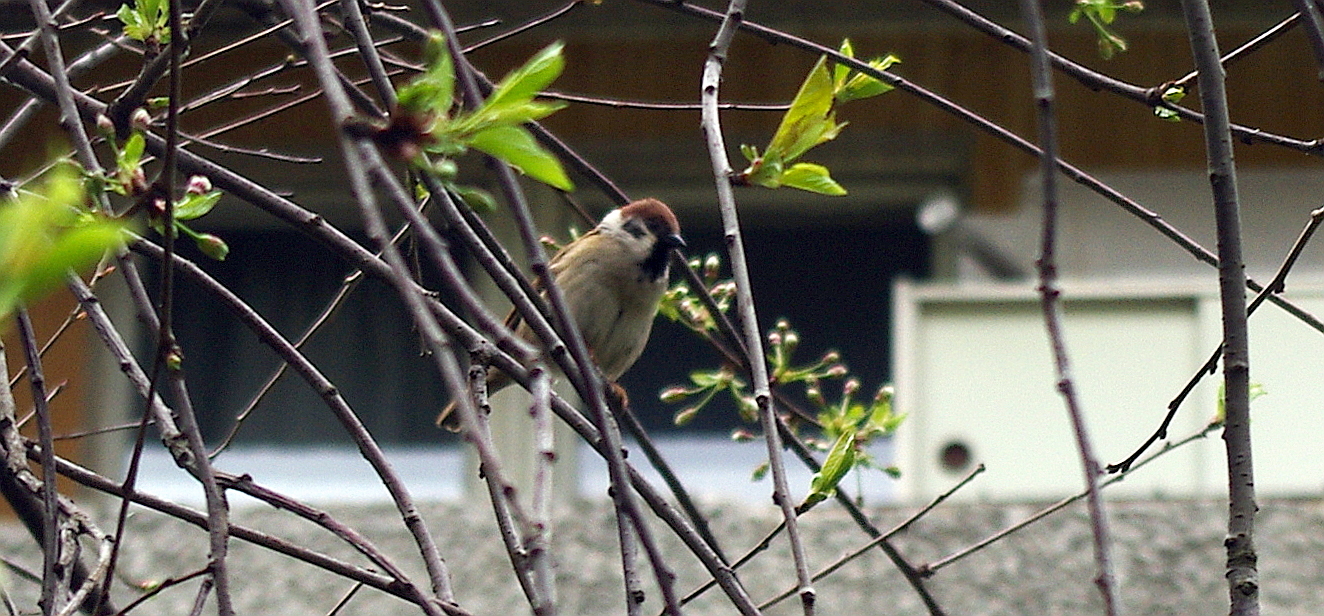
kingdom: Animalia
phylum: Chordata
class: Aves
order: Passeriformes
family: Passeridae
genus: Passer
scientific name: Passer montanus
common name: Eurasian tree sparrow
